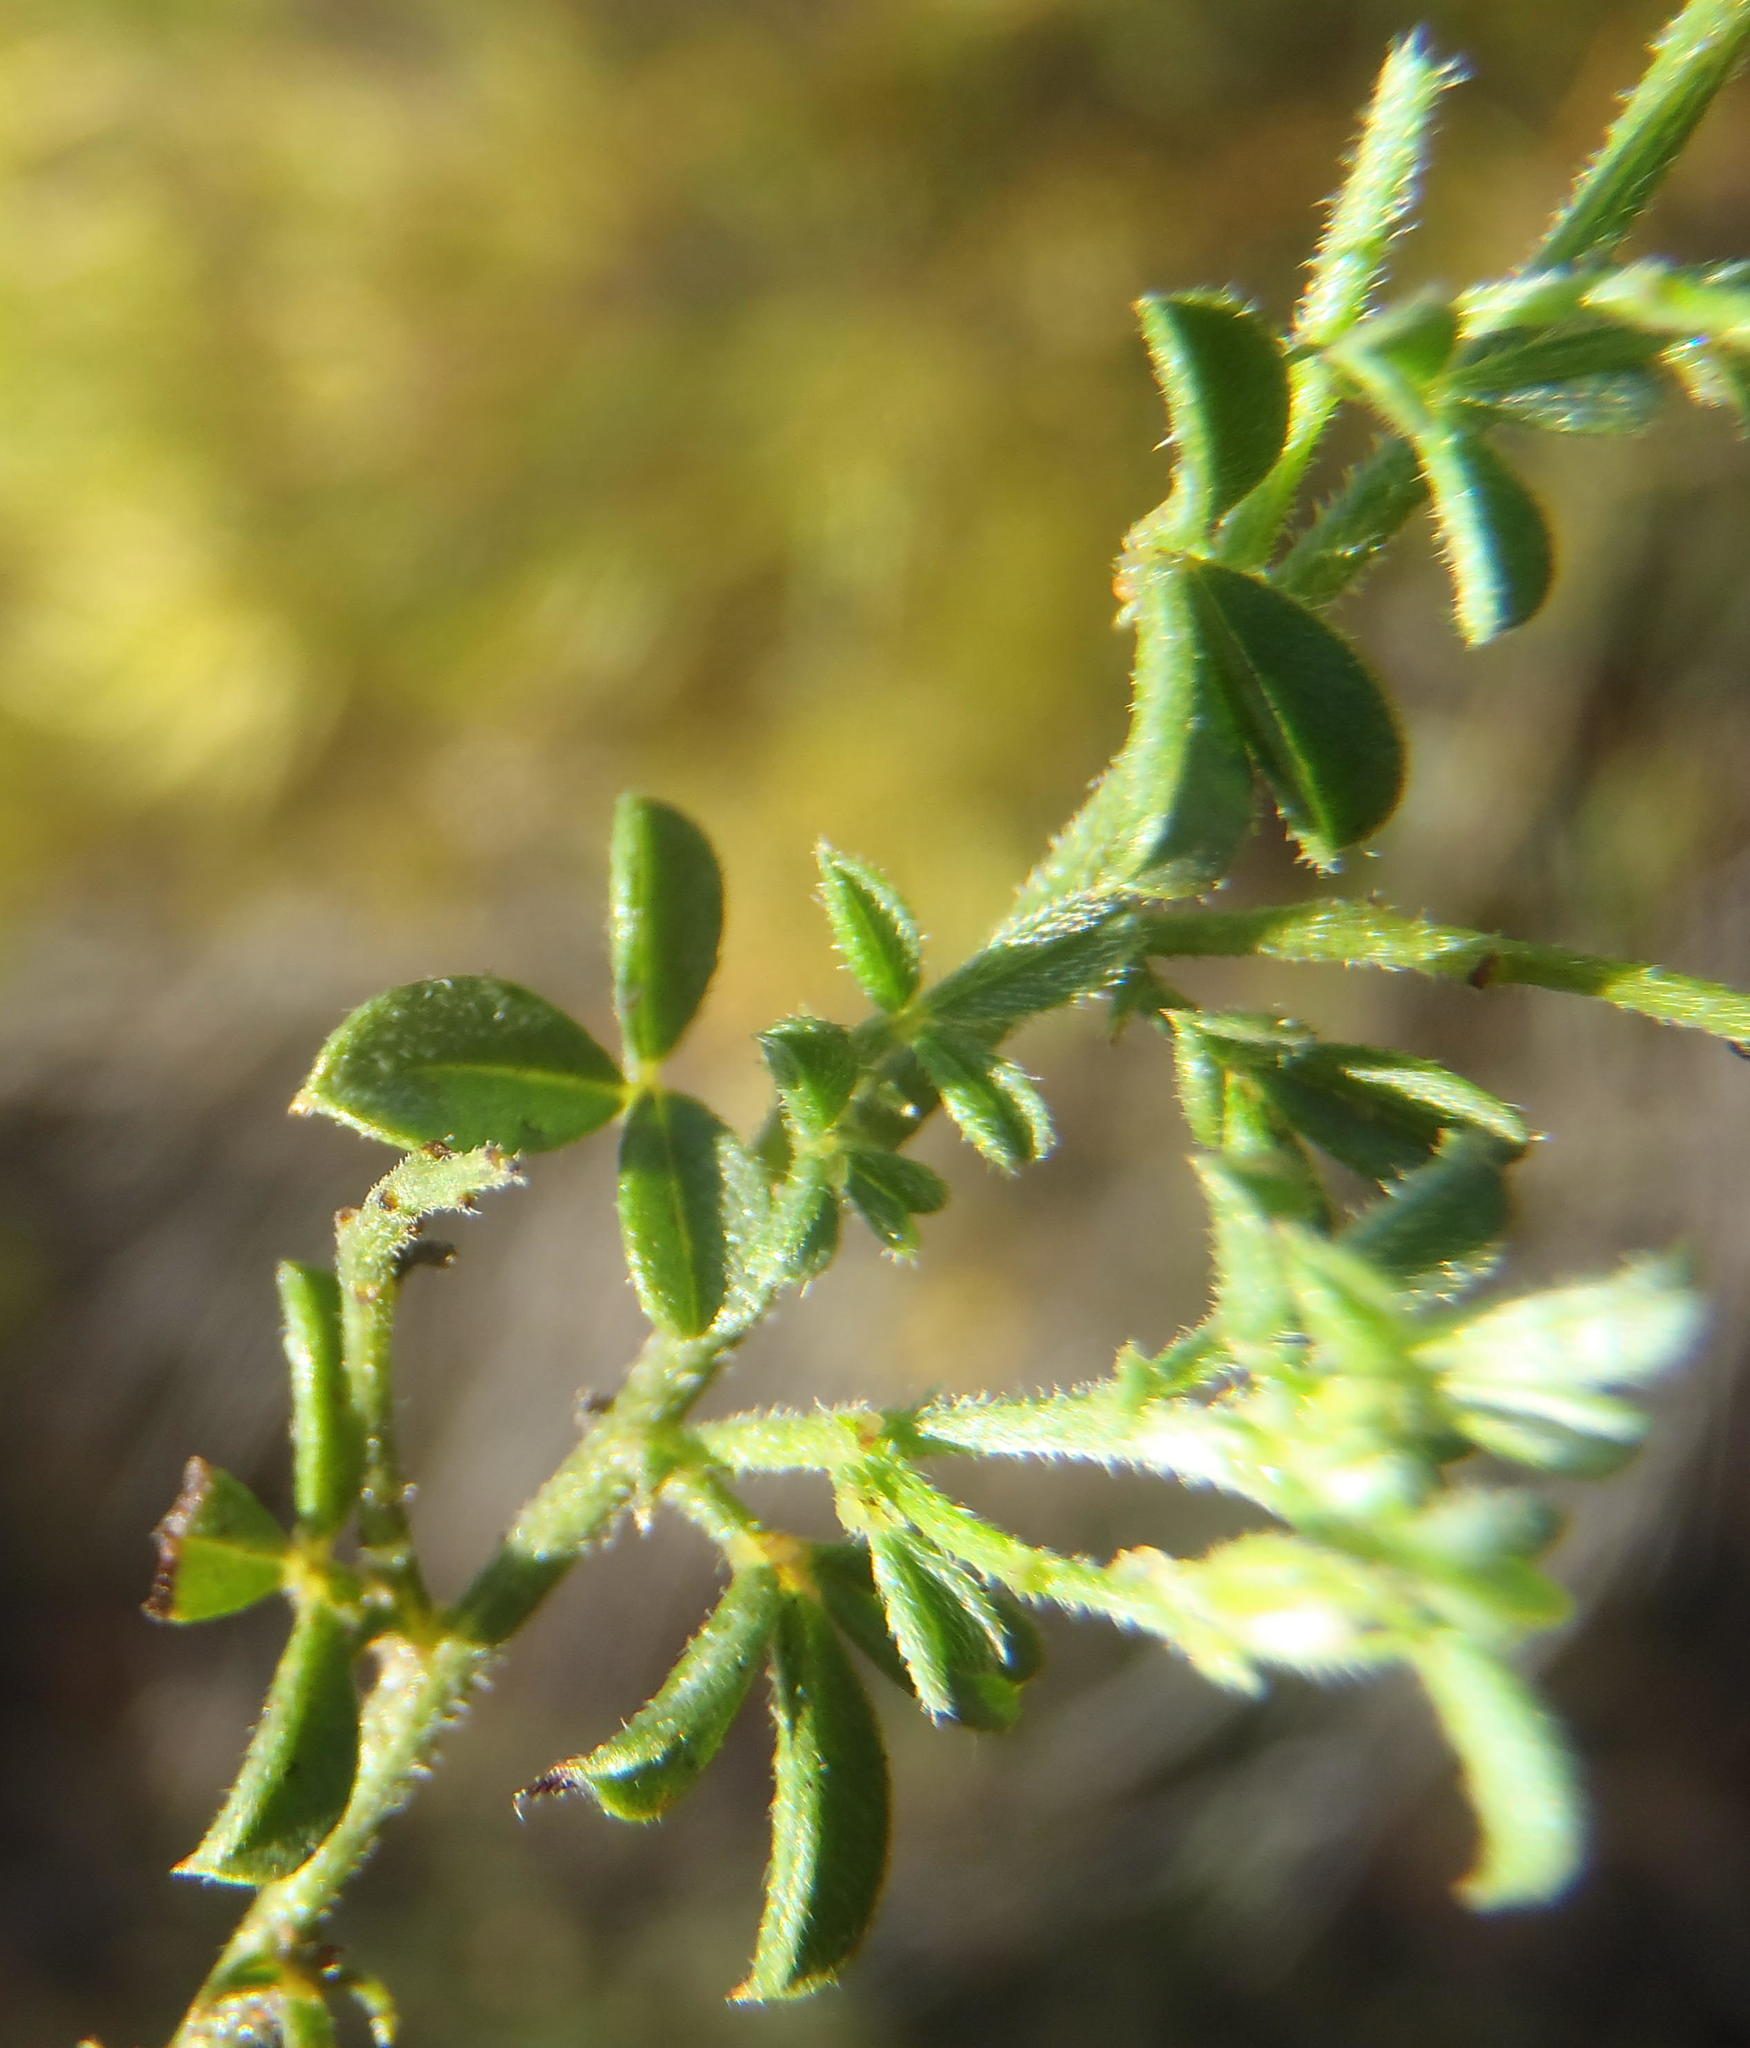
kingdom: Plantae
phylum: Tracheophyta
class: Magnoliopsida
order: Fabales
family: Fabaceae
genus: Indigofera
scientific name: Indigofera priorii
